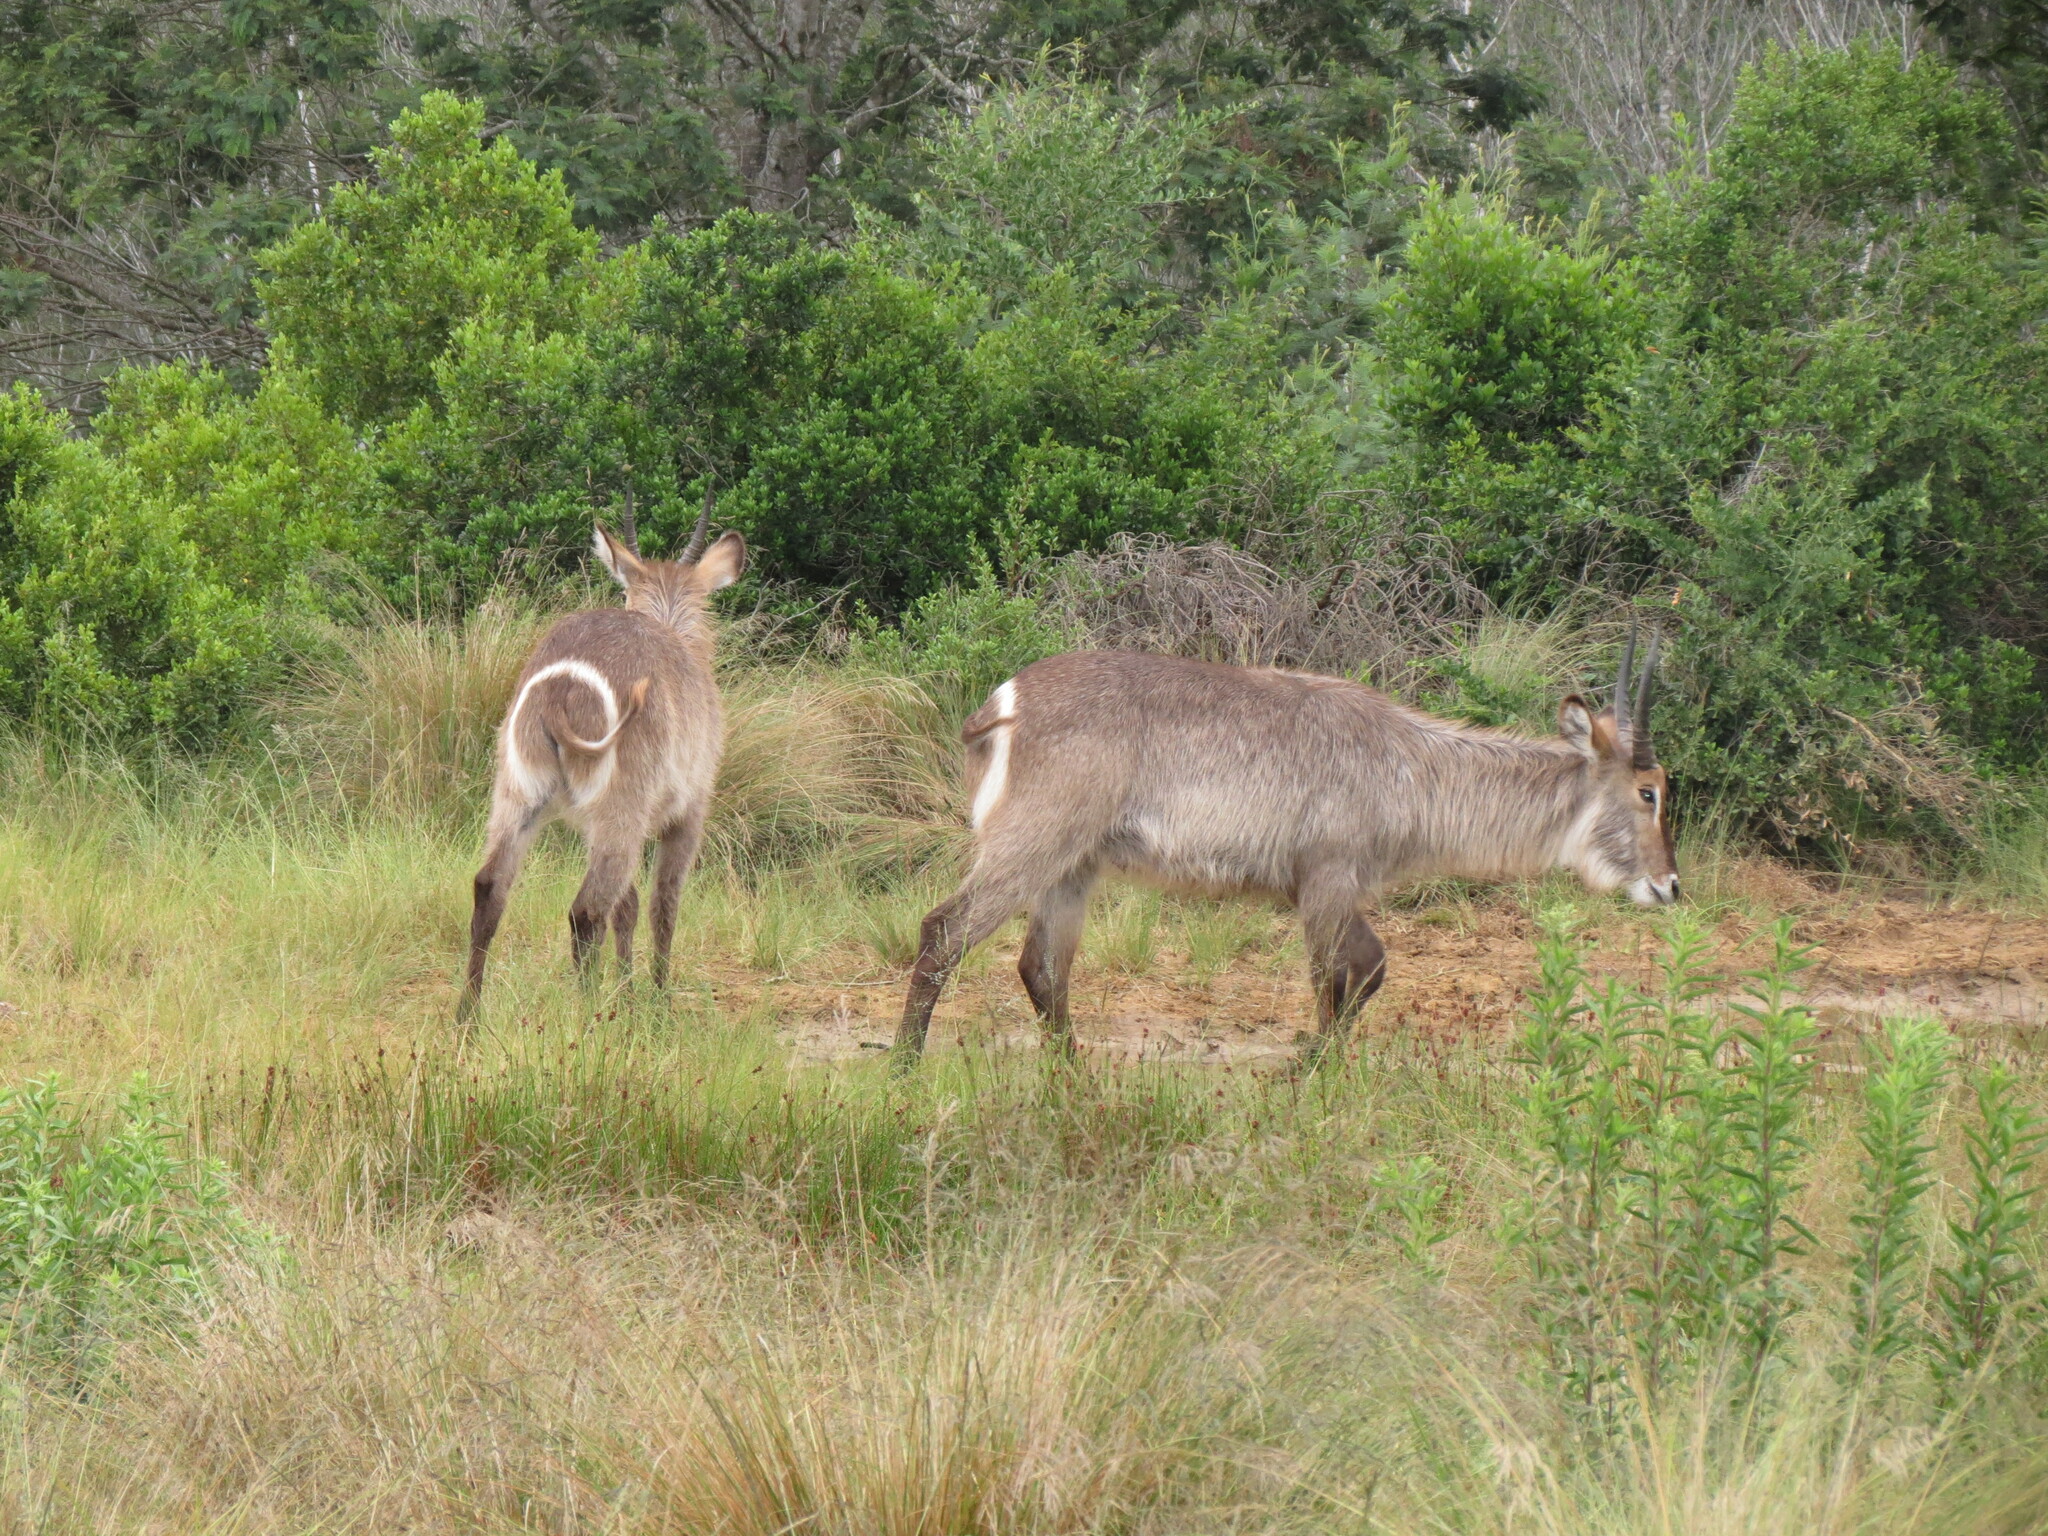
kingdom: Animalia
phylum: Chordata
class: Mammalia
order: Artiodactyla
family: Bovidae
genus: Kobus
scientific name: Kobus ellipsiprymnus
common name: Waterbuck
